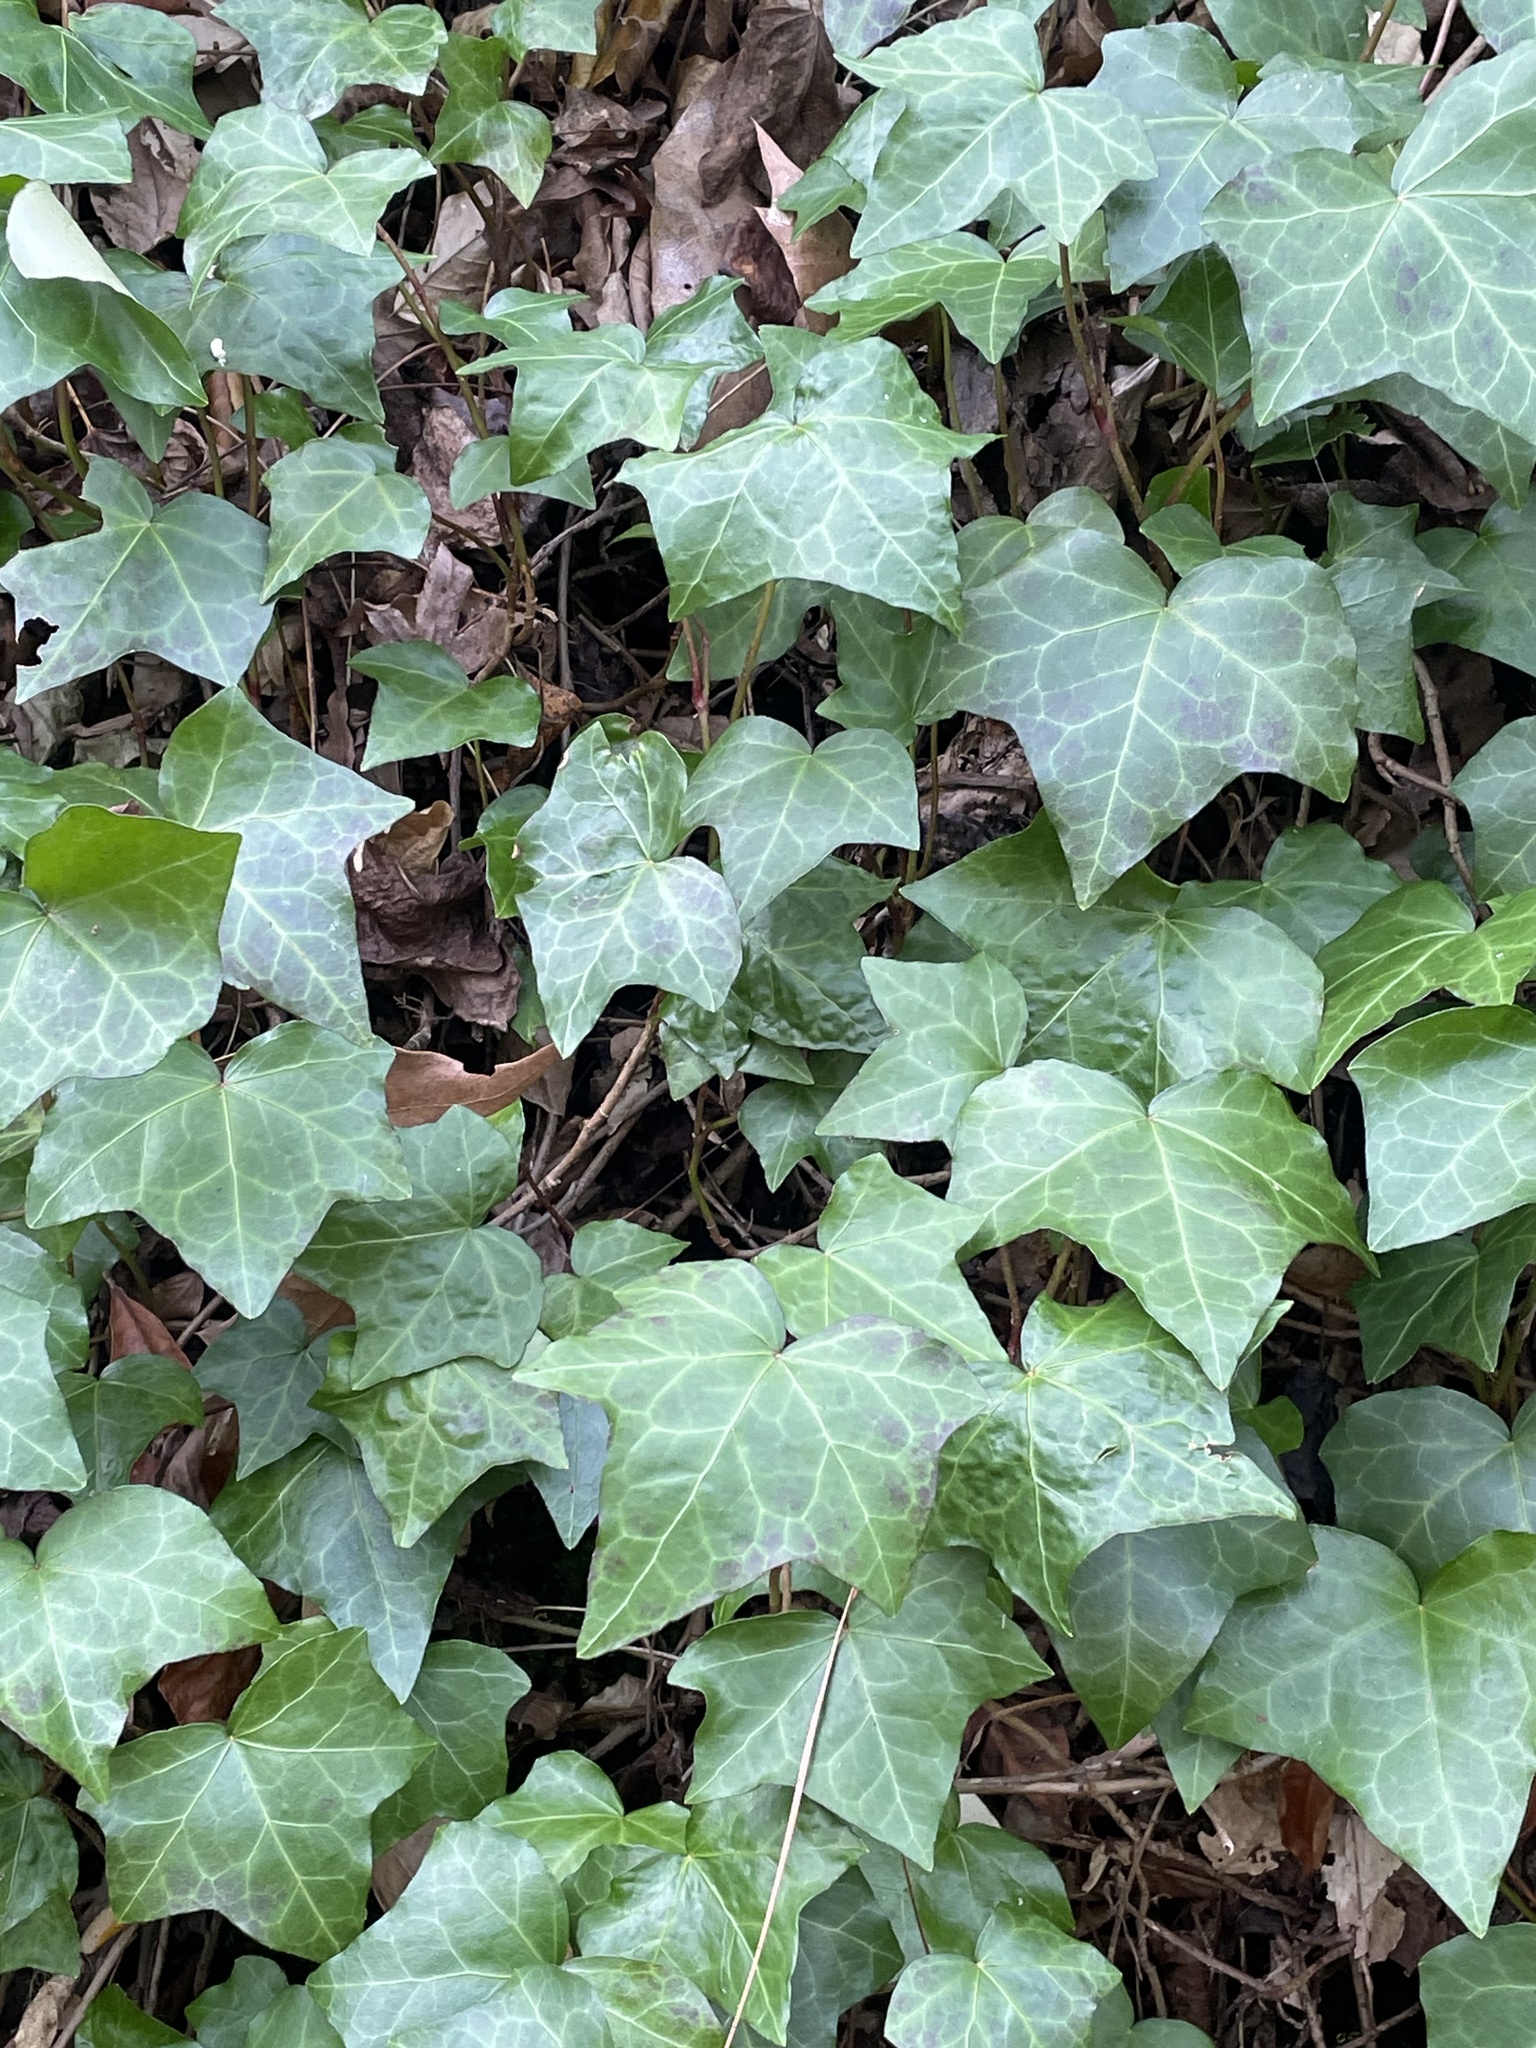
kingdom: Plantae
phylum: Tracheophyta
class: Magnoliopsida
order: Apiales
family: Araliaceae
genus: Hedera
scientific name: Hedera helix
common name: Ivy
